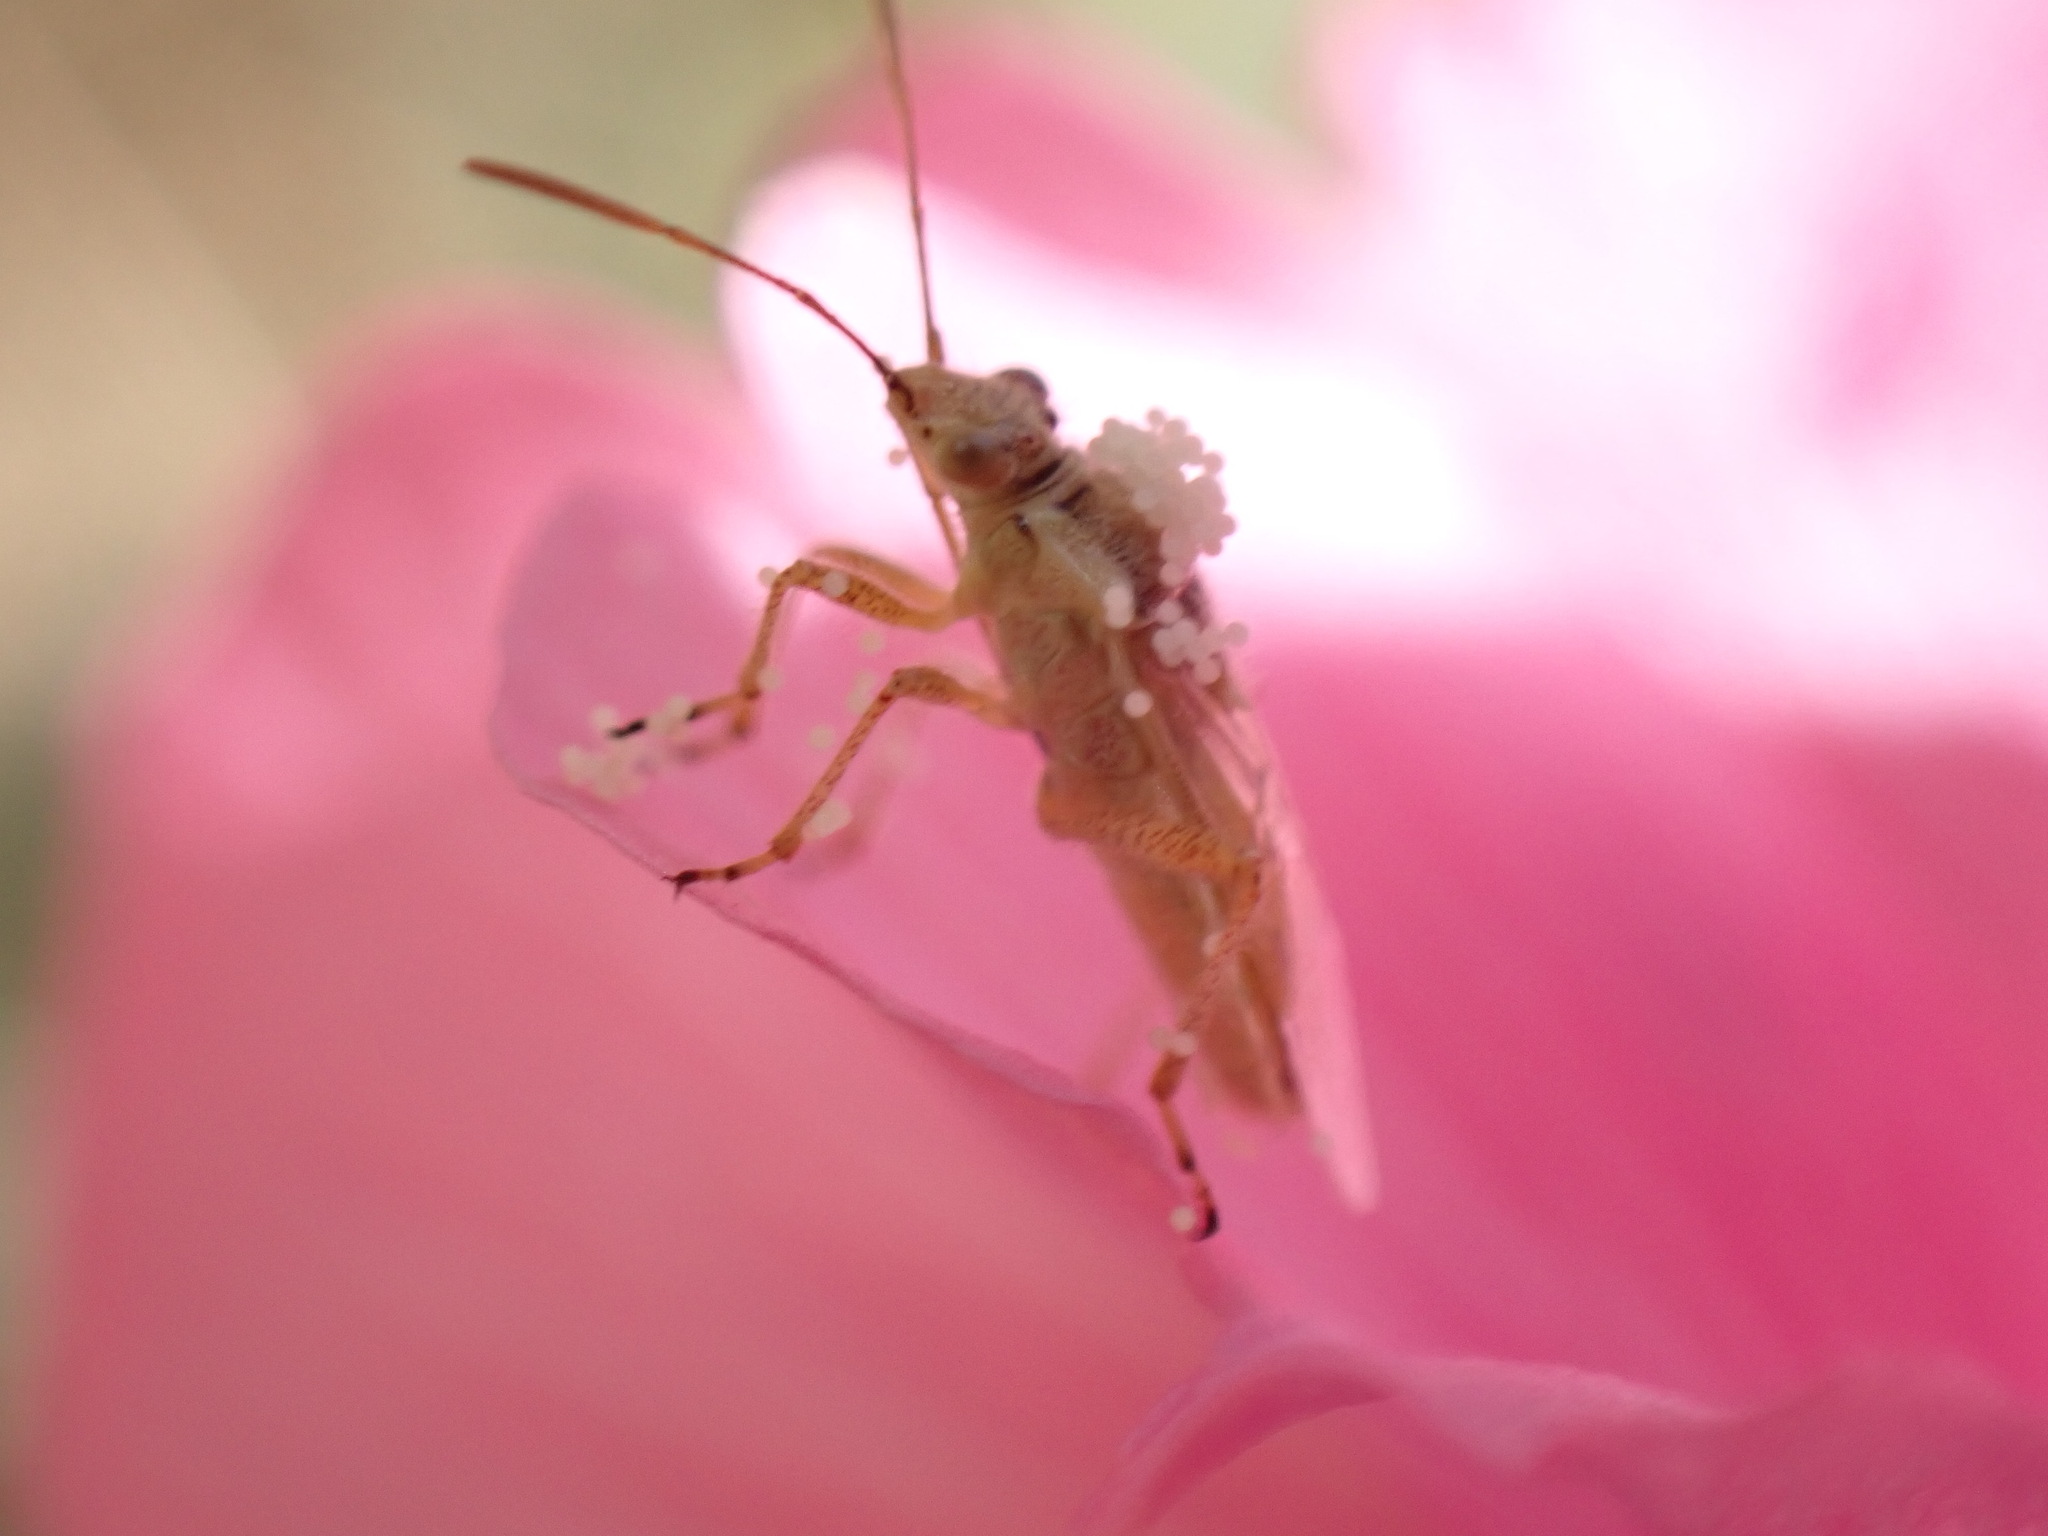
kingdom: Animalia
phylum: Arthropoda
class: Insecta
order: Hemiptera
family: Rhopalidae
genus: Liorhyssus
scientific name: Liorhyssus hyalinus
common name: Scentless plant bug
